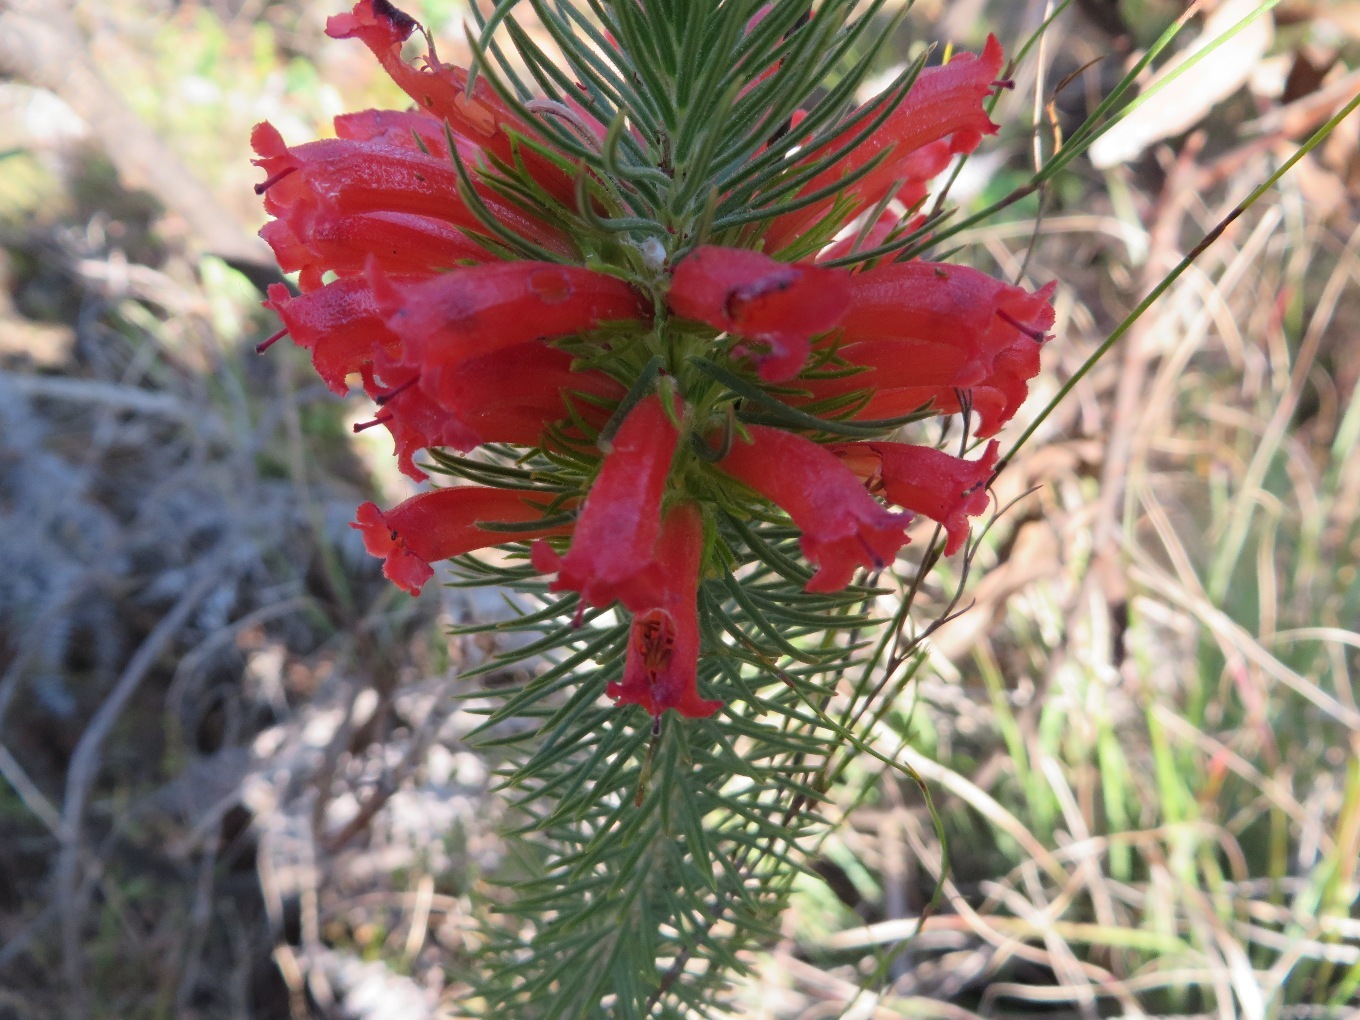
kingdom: Plantae
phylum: Tracheophyta
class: Magnoliopsida
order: Ericales
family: Ericaceae
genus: Erica
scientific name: Erica viscaria
